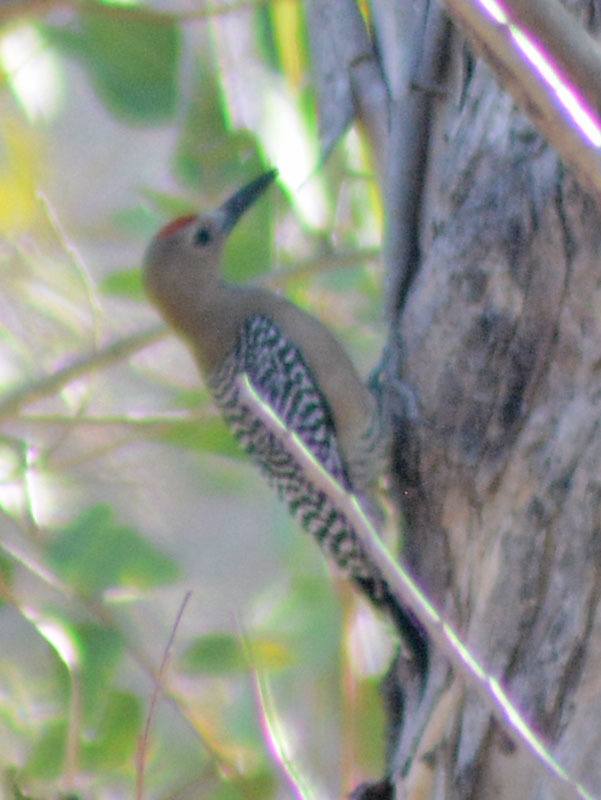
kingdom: Animalia
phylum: Chordata
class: Aves
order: Piciformes
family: Picidae
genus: Melanerpes
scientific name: Melanerpes uropygialis
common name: Gila woodpecker
